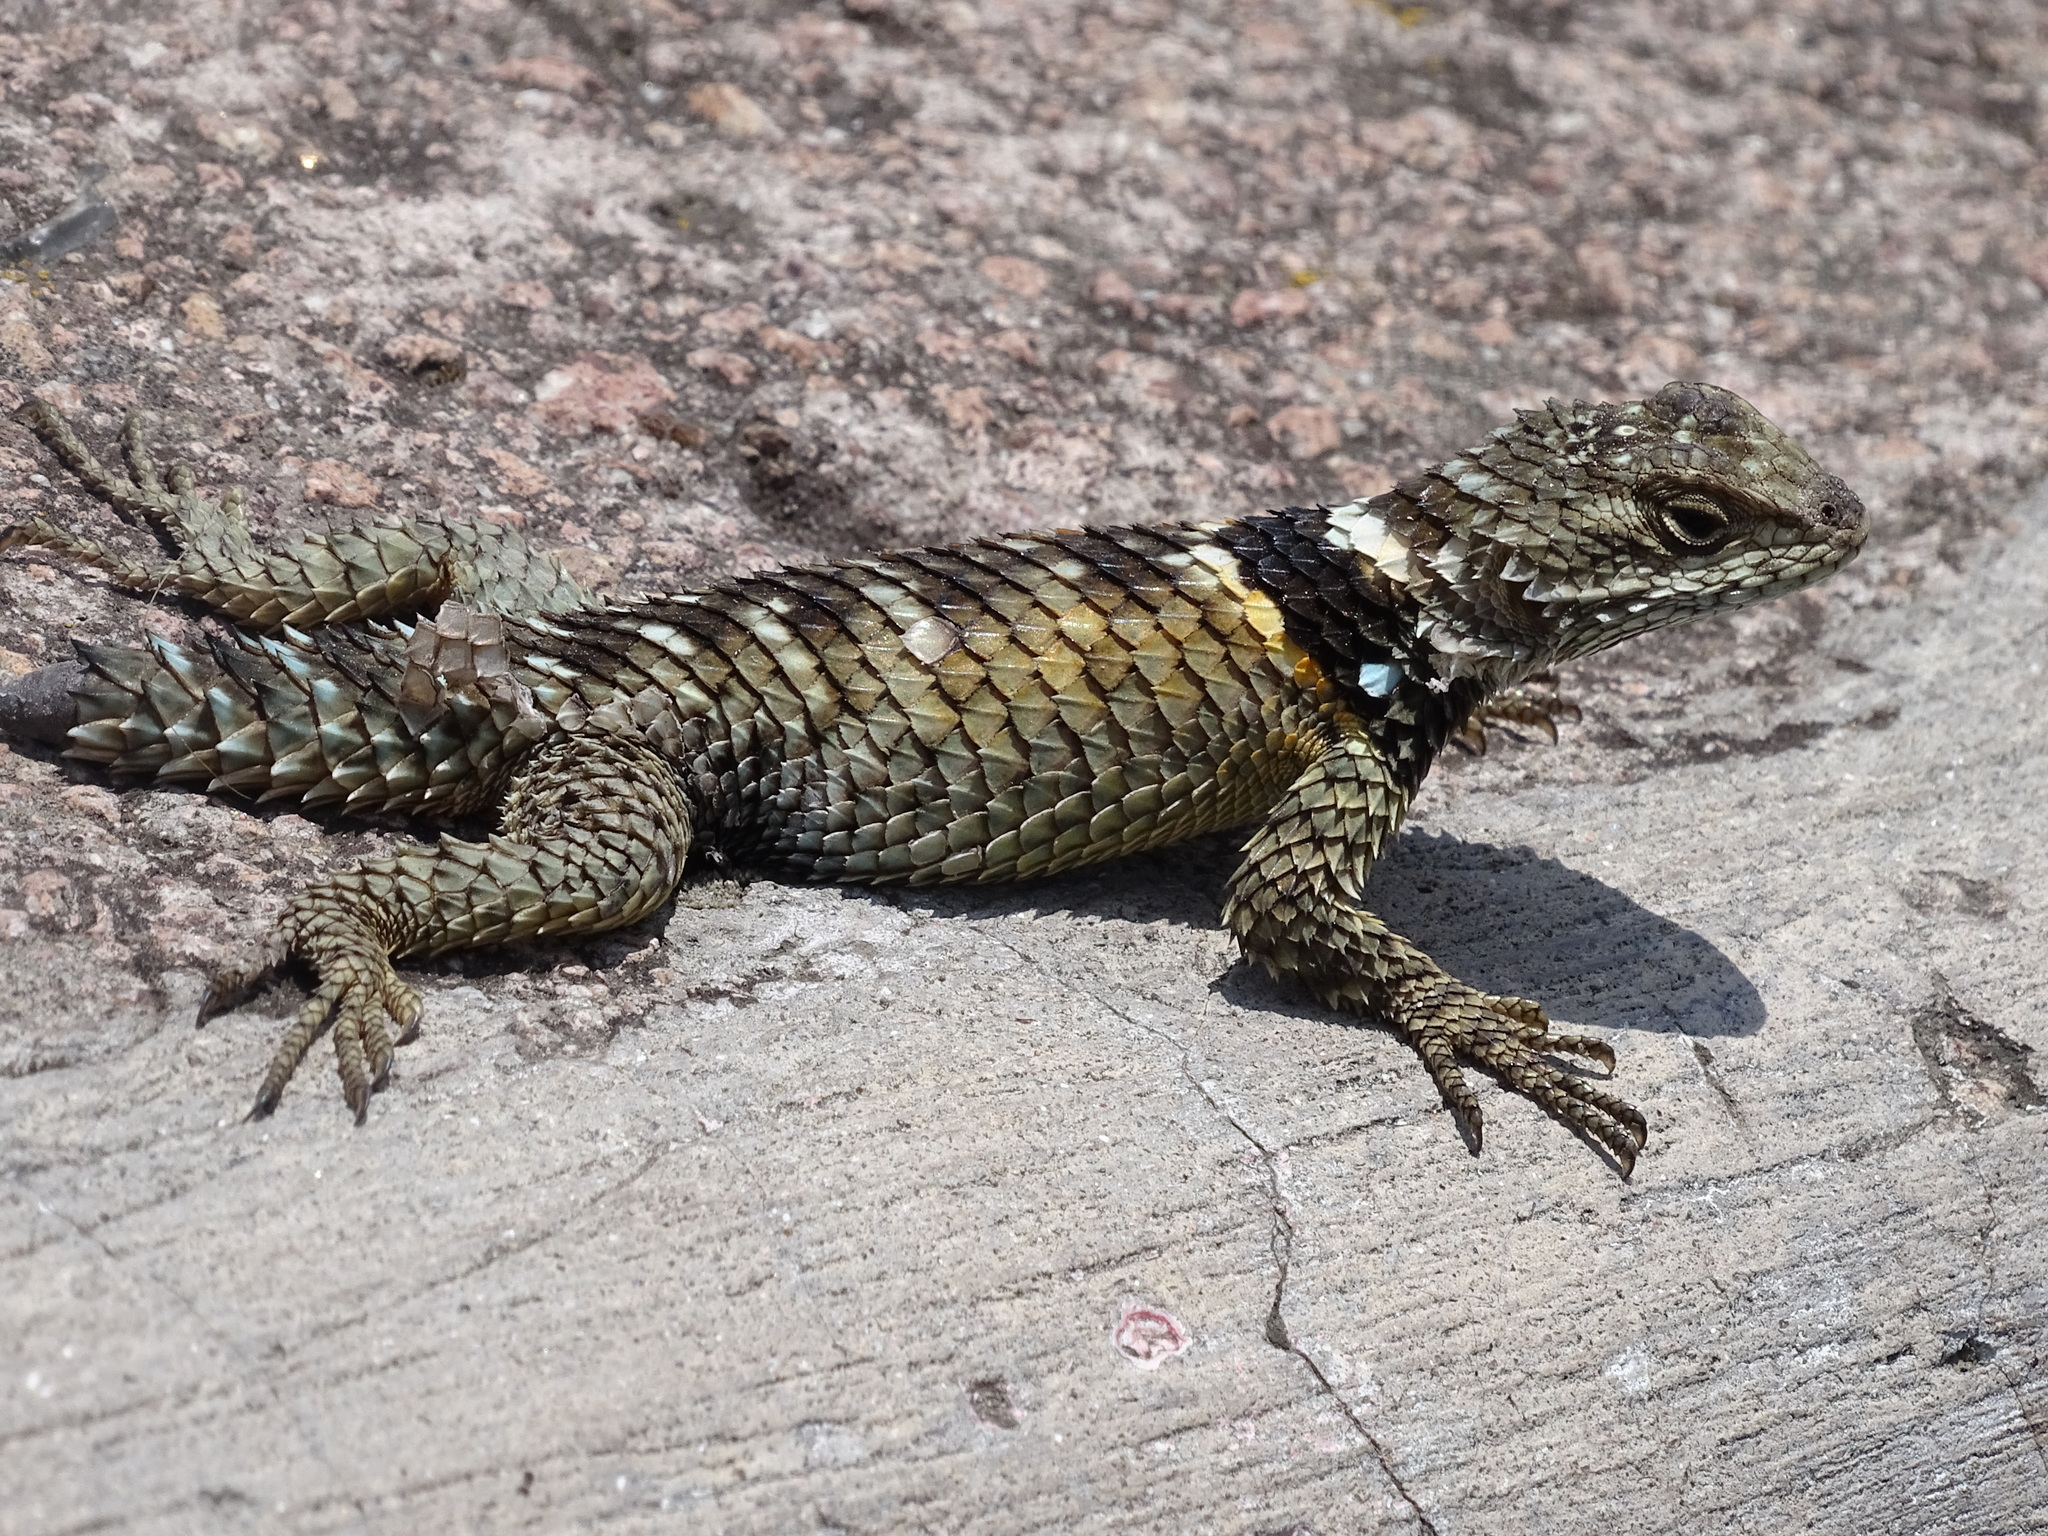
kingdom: Animalia
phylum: Chordata
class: Squamata
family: Phrynosomatidae
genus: Sceloporus
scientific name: Sceloporus torquatus
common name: Central plateau torquate lizard [melanogaster]
